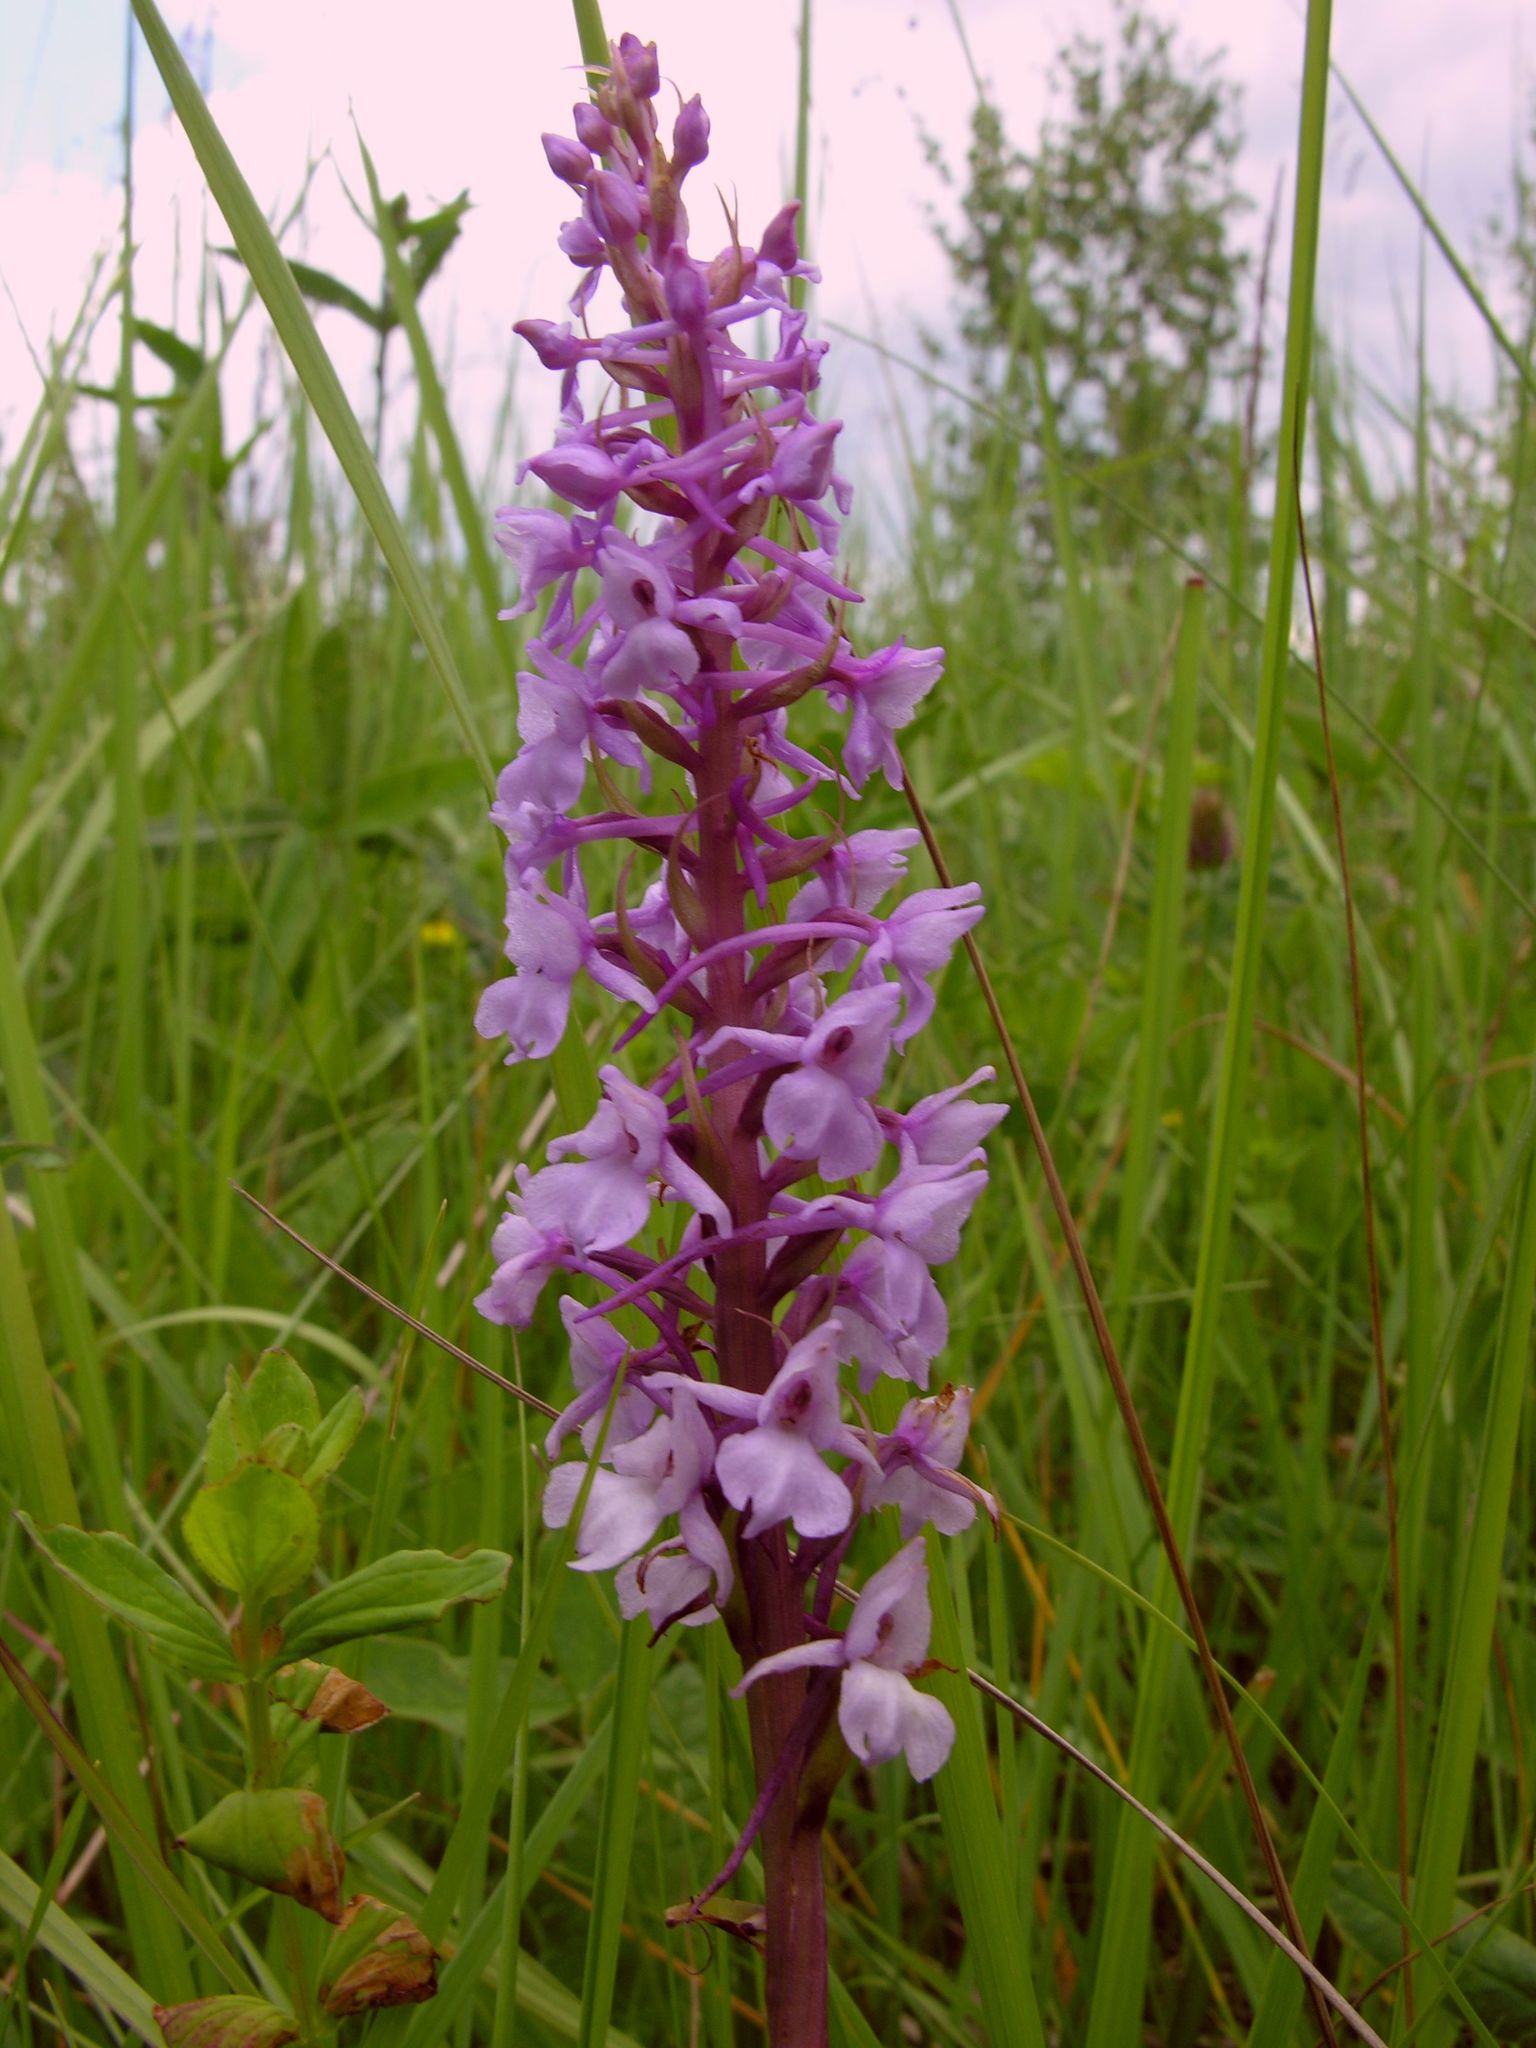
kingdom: Plantae
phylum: Tracheophyta
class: Liliopsida
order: Asparagales
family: Orchidaceae
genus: Gymnadenia
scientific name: Gymnadenia conopsea
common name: Fragrant orchid
